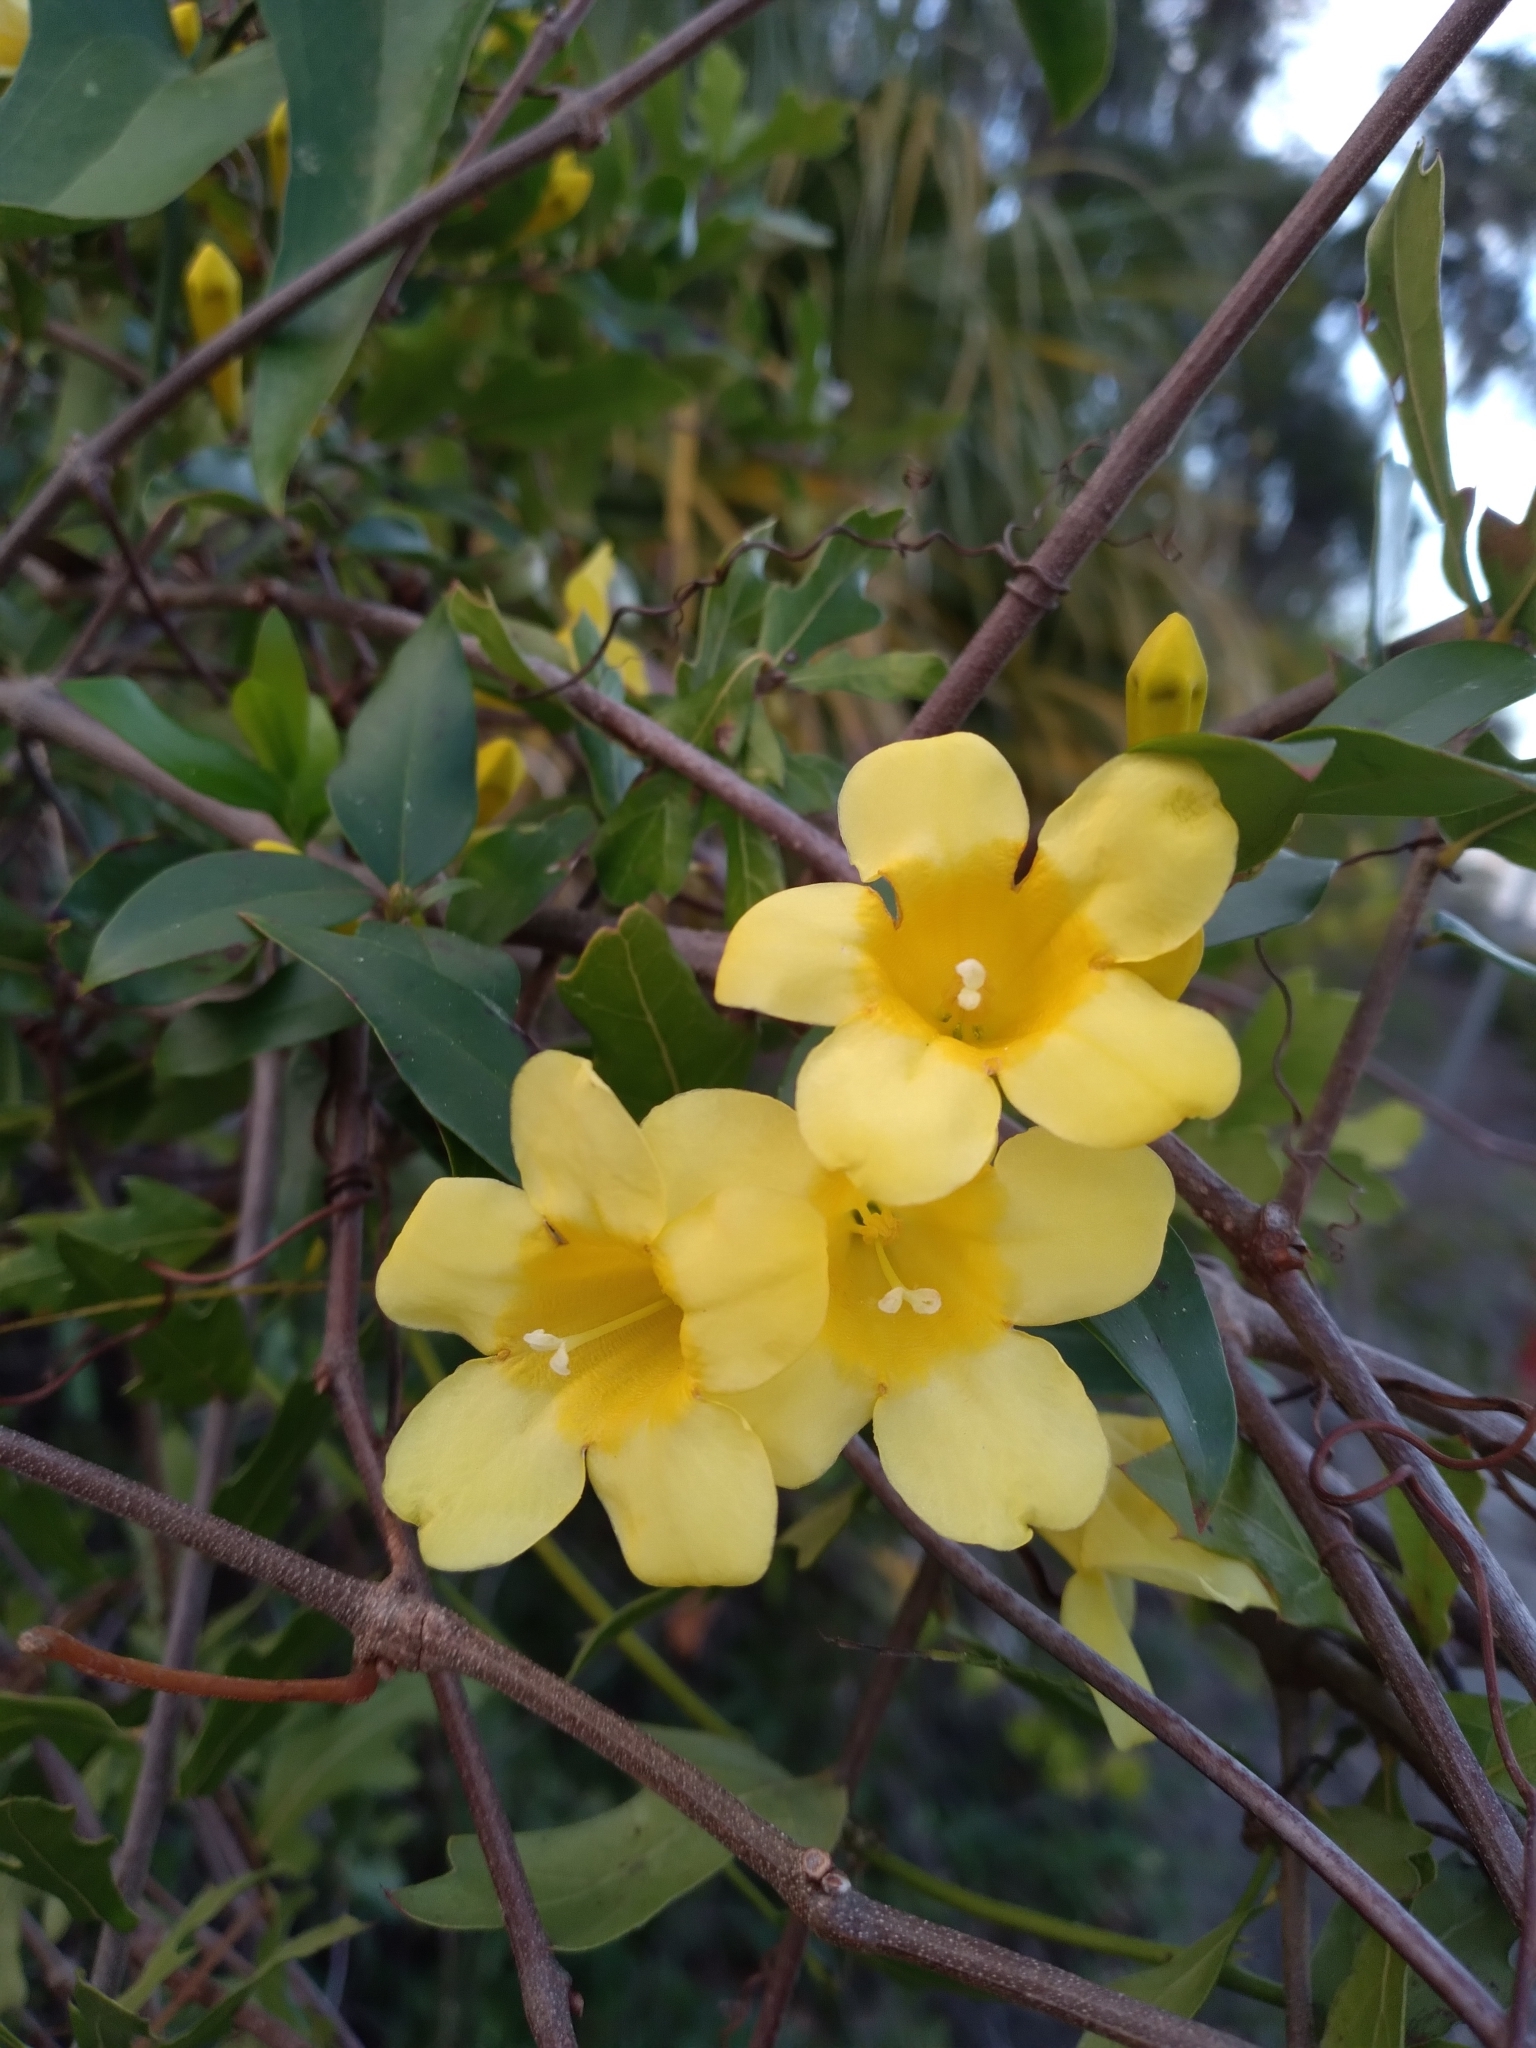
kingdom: Plantae
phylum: Tracheophyta
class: Magnoliopsida
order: Gentianales
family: Gelsemiaceae
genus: Gelsemium
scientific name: Gelsemium sempervirens
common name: Carolina-jasmine
